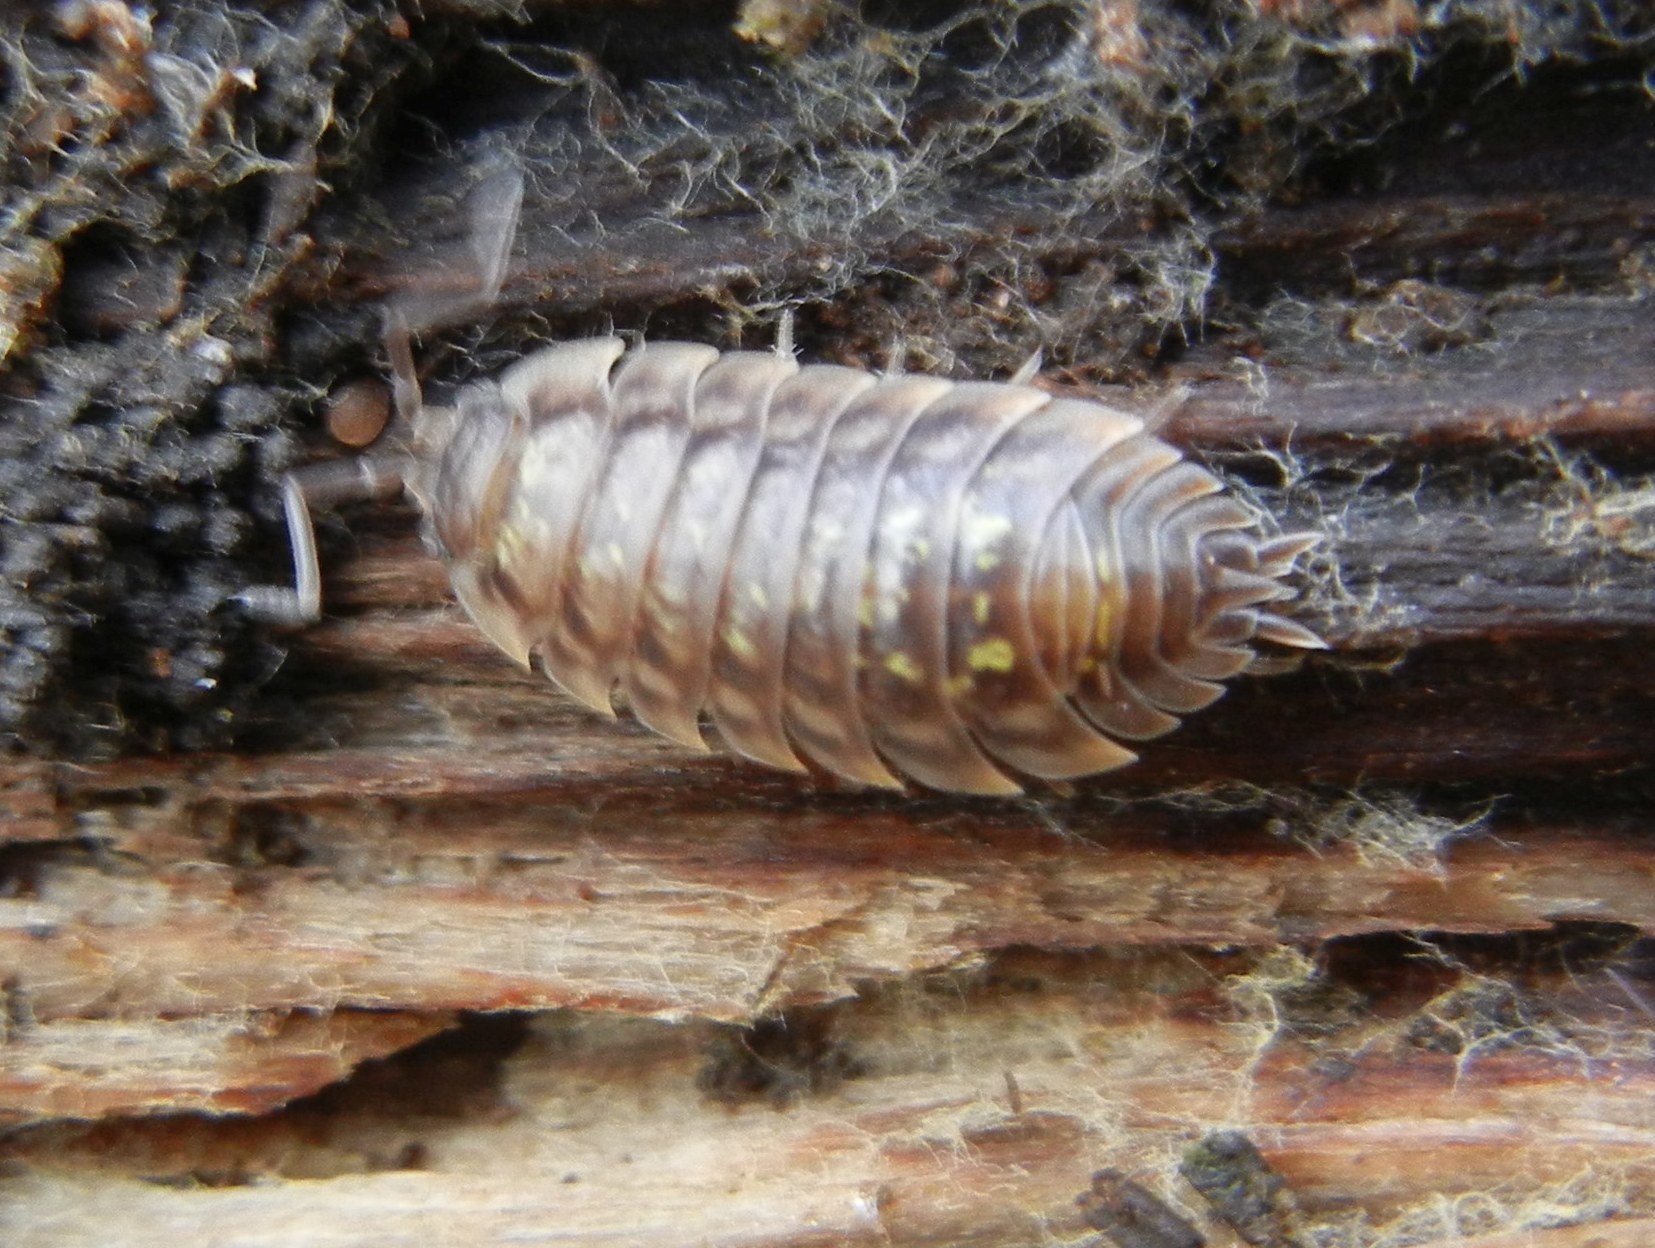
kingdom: Animalia
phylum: Arthropoda
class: Malacostraca
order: Isopoda
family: Oniscidae
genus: Oniscus
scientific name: Oniscus asellus
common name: Common shiny woodlouse
